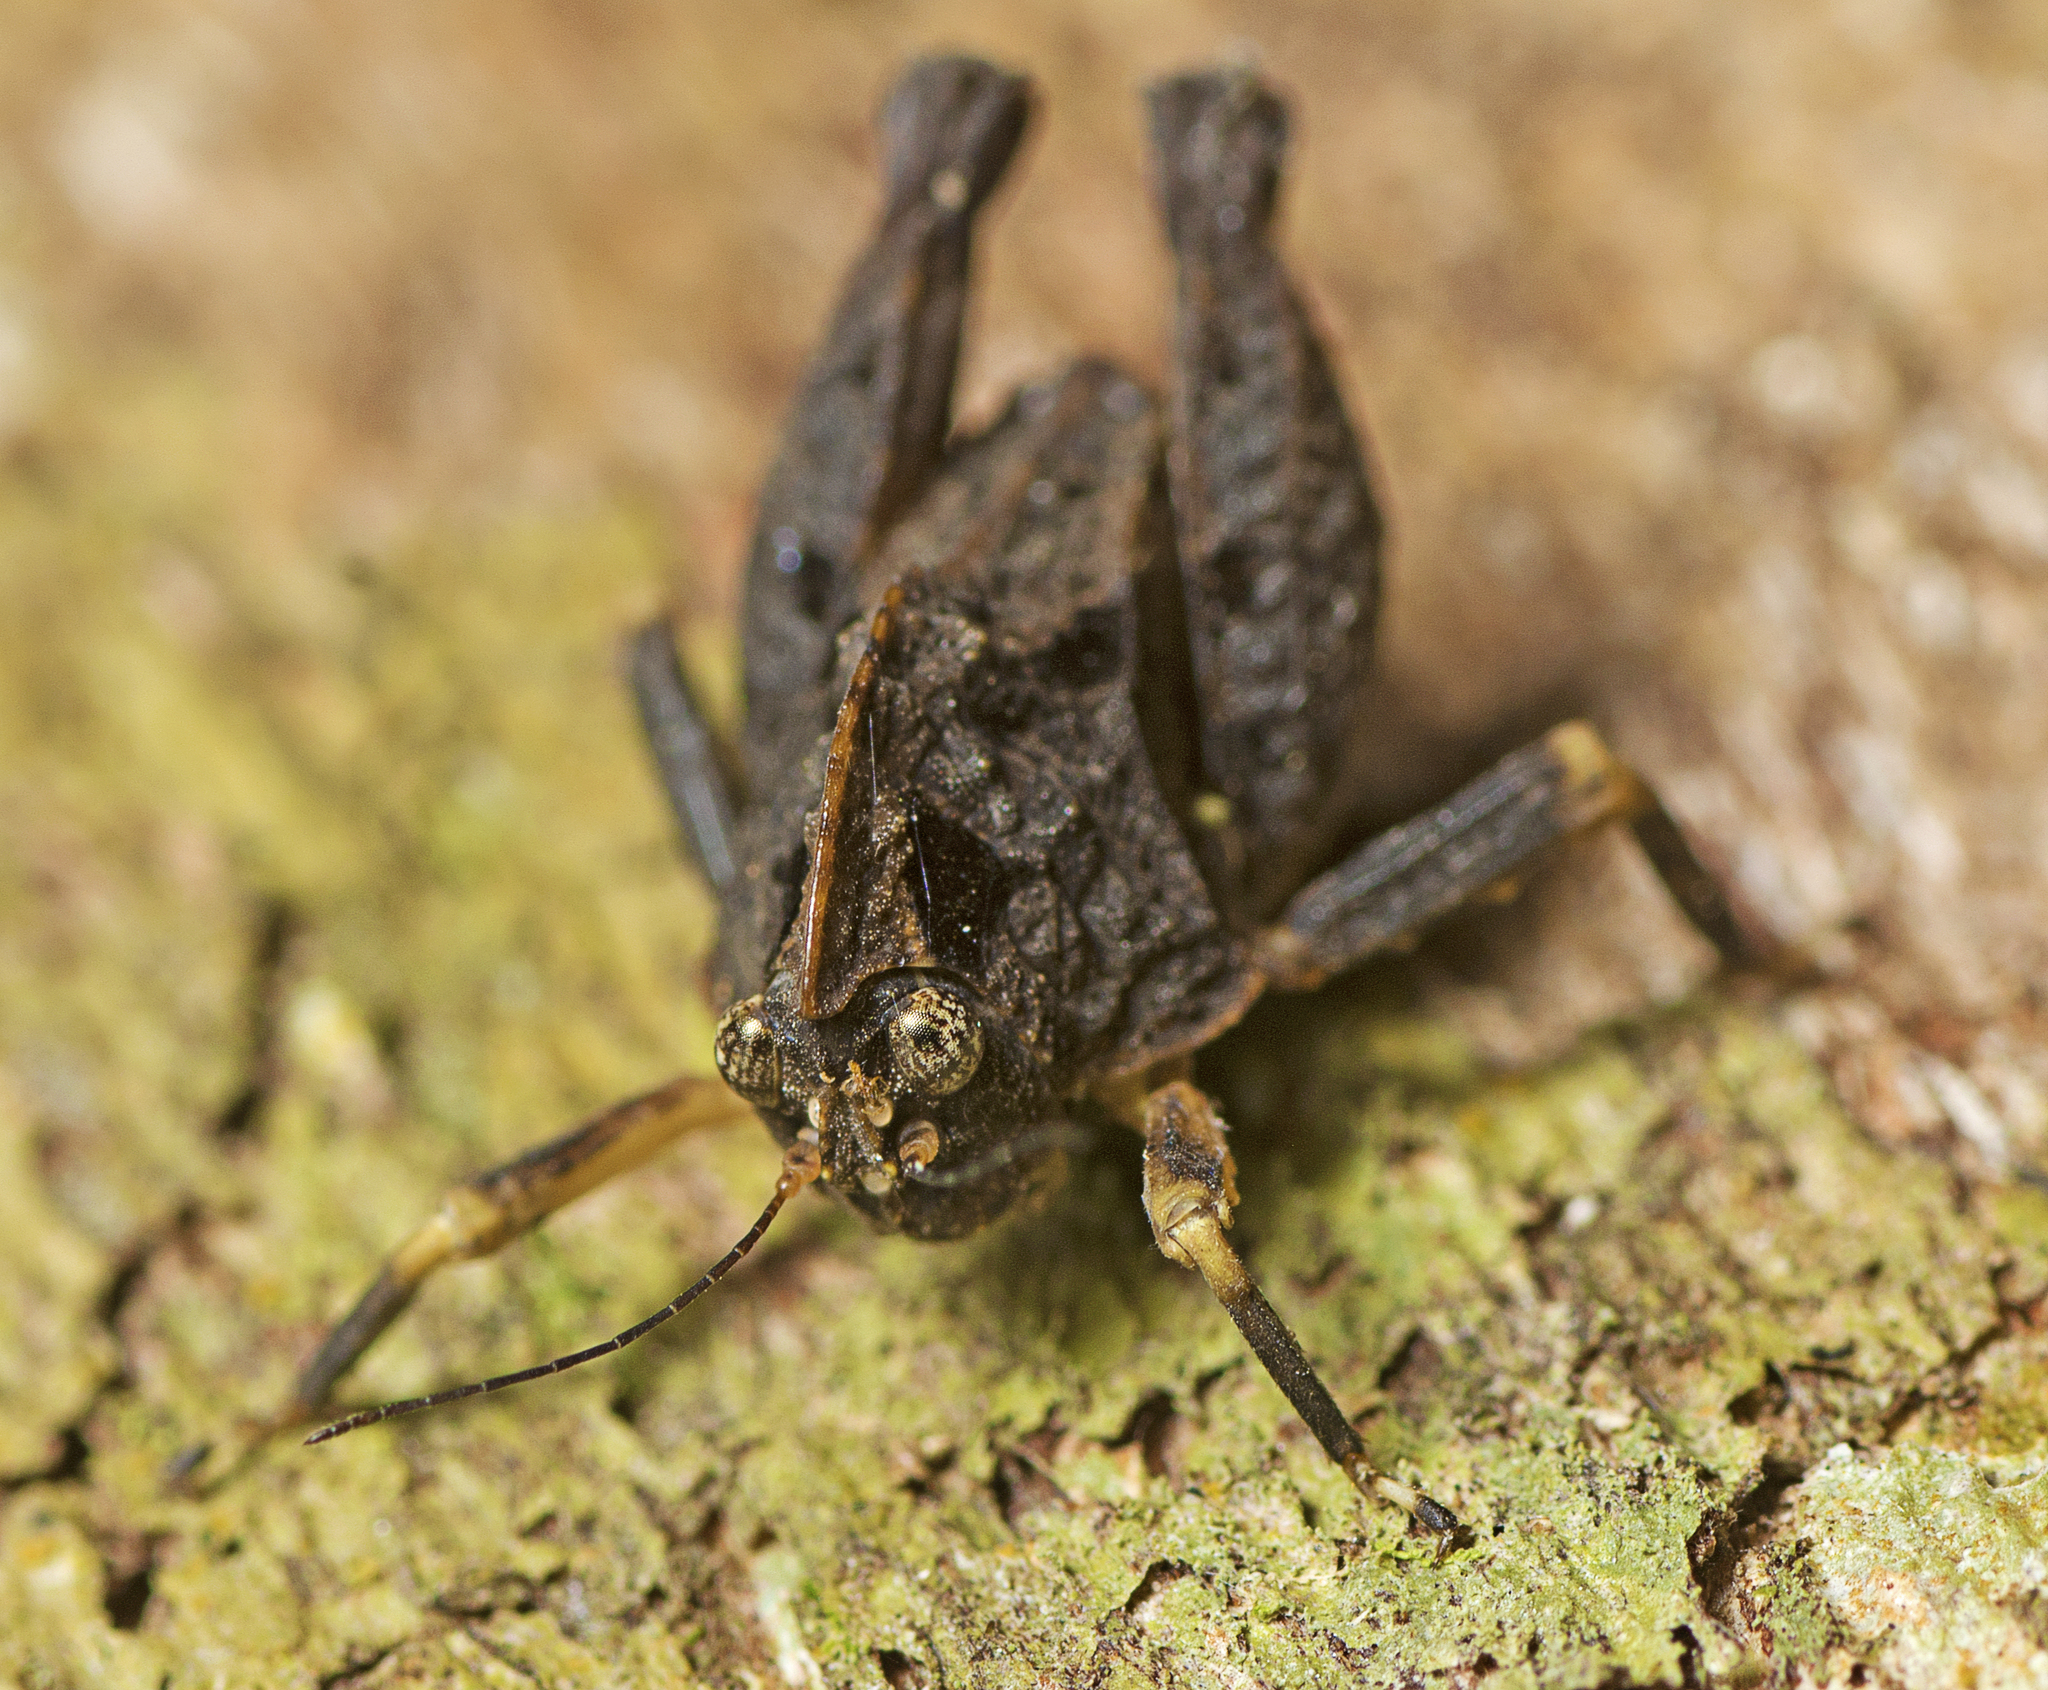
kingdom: Animalia
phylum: Arthropoda
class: Insecta
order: Orthoptera
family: Tetrigidae
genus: Paraselina
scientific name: Paraselina brunneri
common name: Angled australian barkhopper
